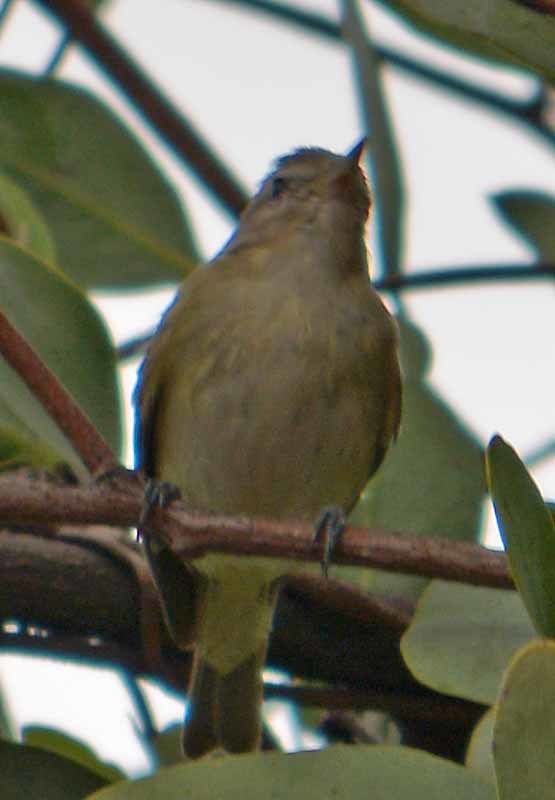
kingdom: Animalia
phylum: Chordata
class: Aves
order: Passeriformes
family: Vireonidae
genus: Vireo
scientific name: Vireo gilvus
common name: Warbling vireo
